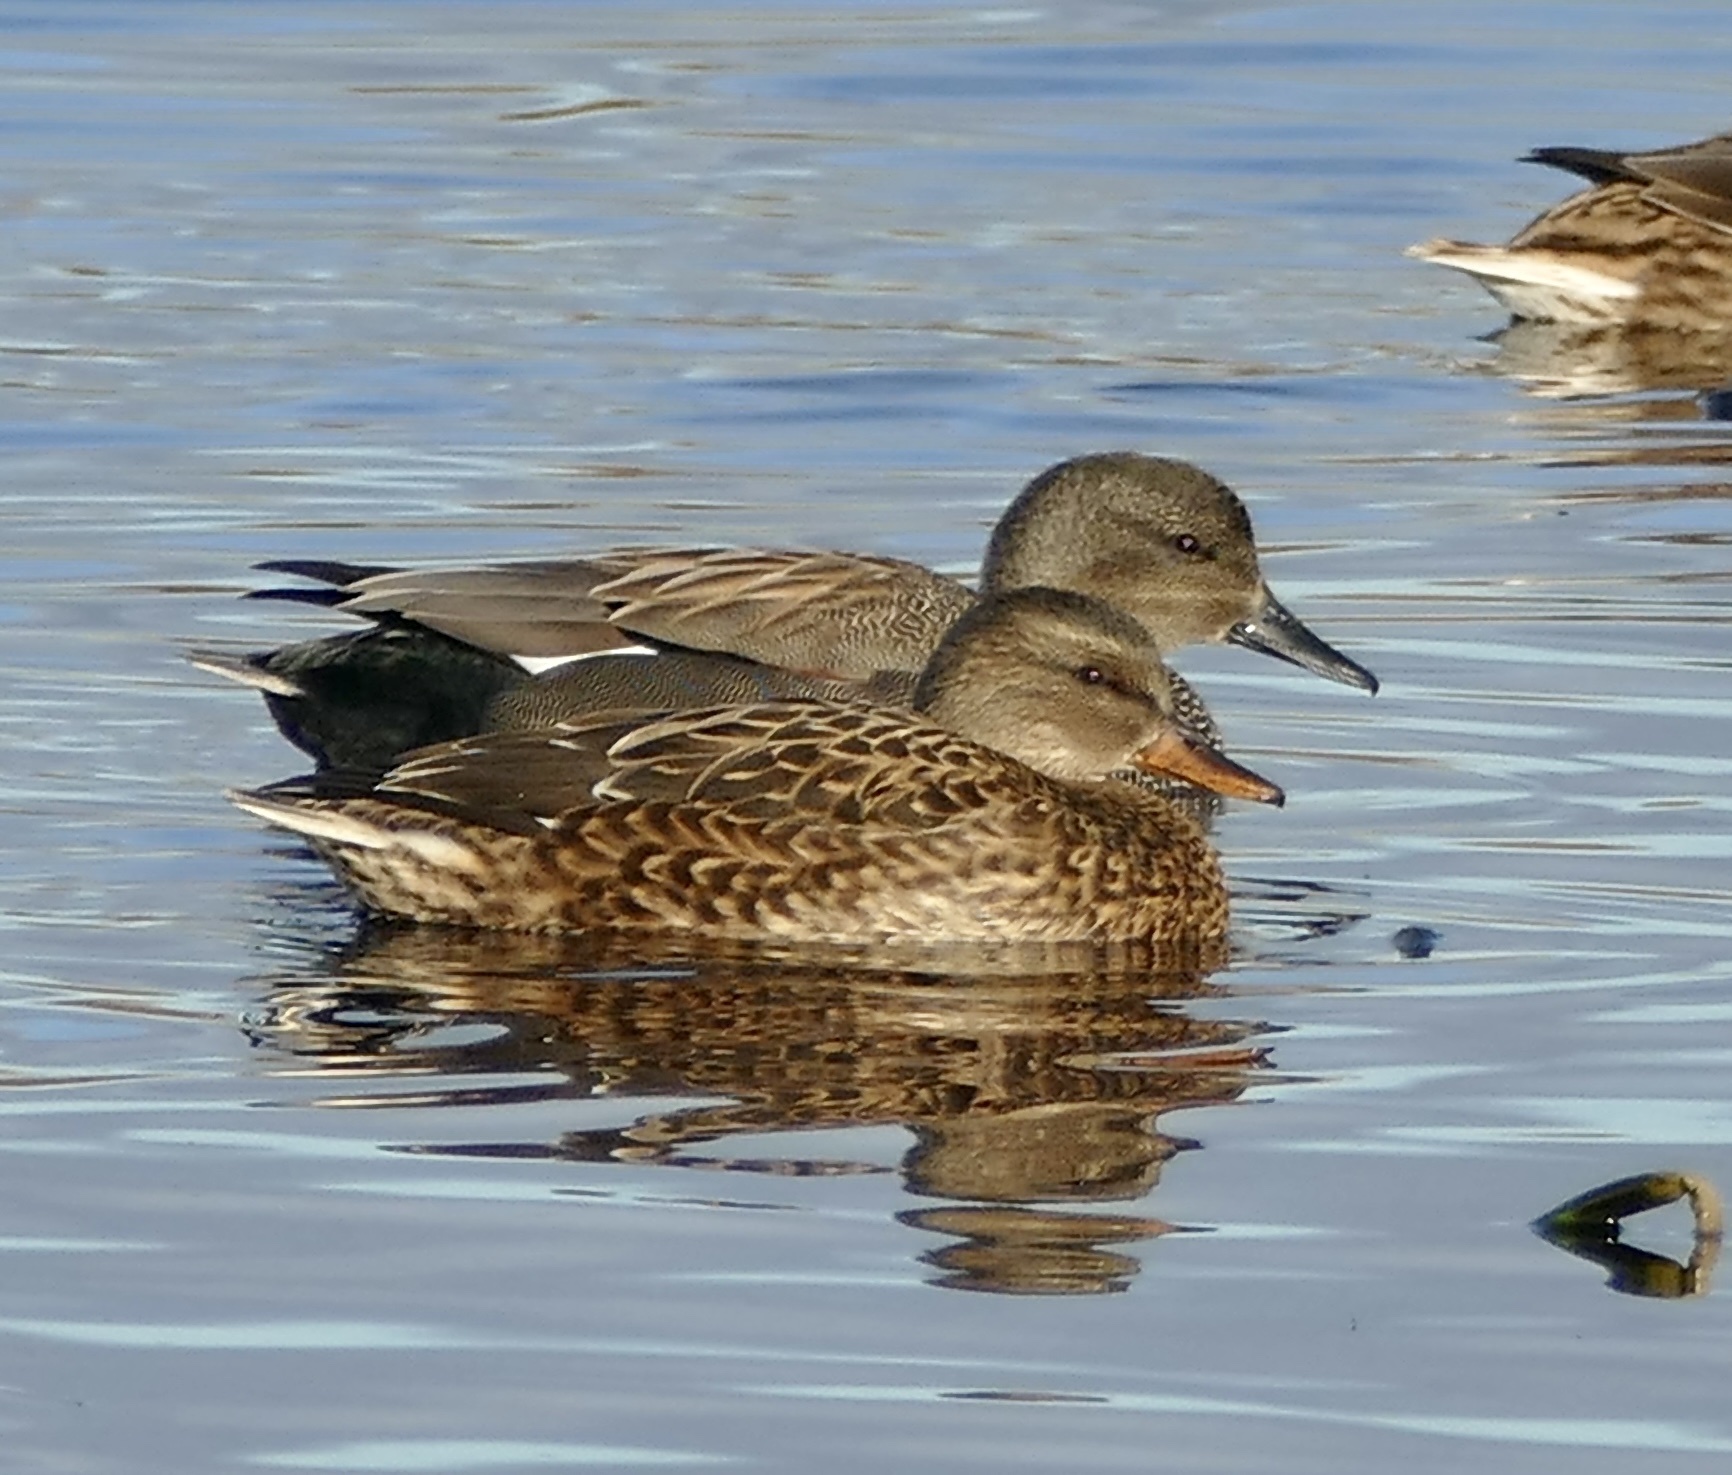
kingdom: Animalia
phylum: Chordata
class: Aves
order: Anseriformes
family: Anatidae
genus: Mareca
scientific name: Mareca strepera
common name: Gadwall
